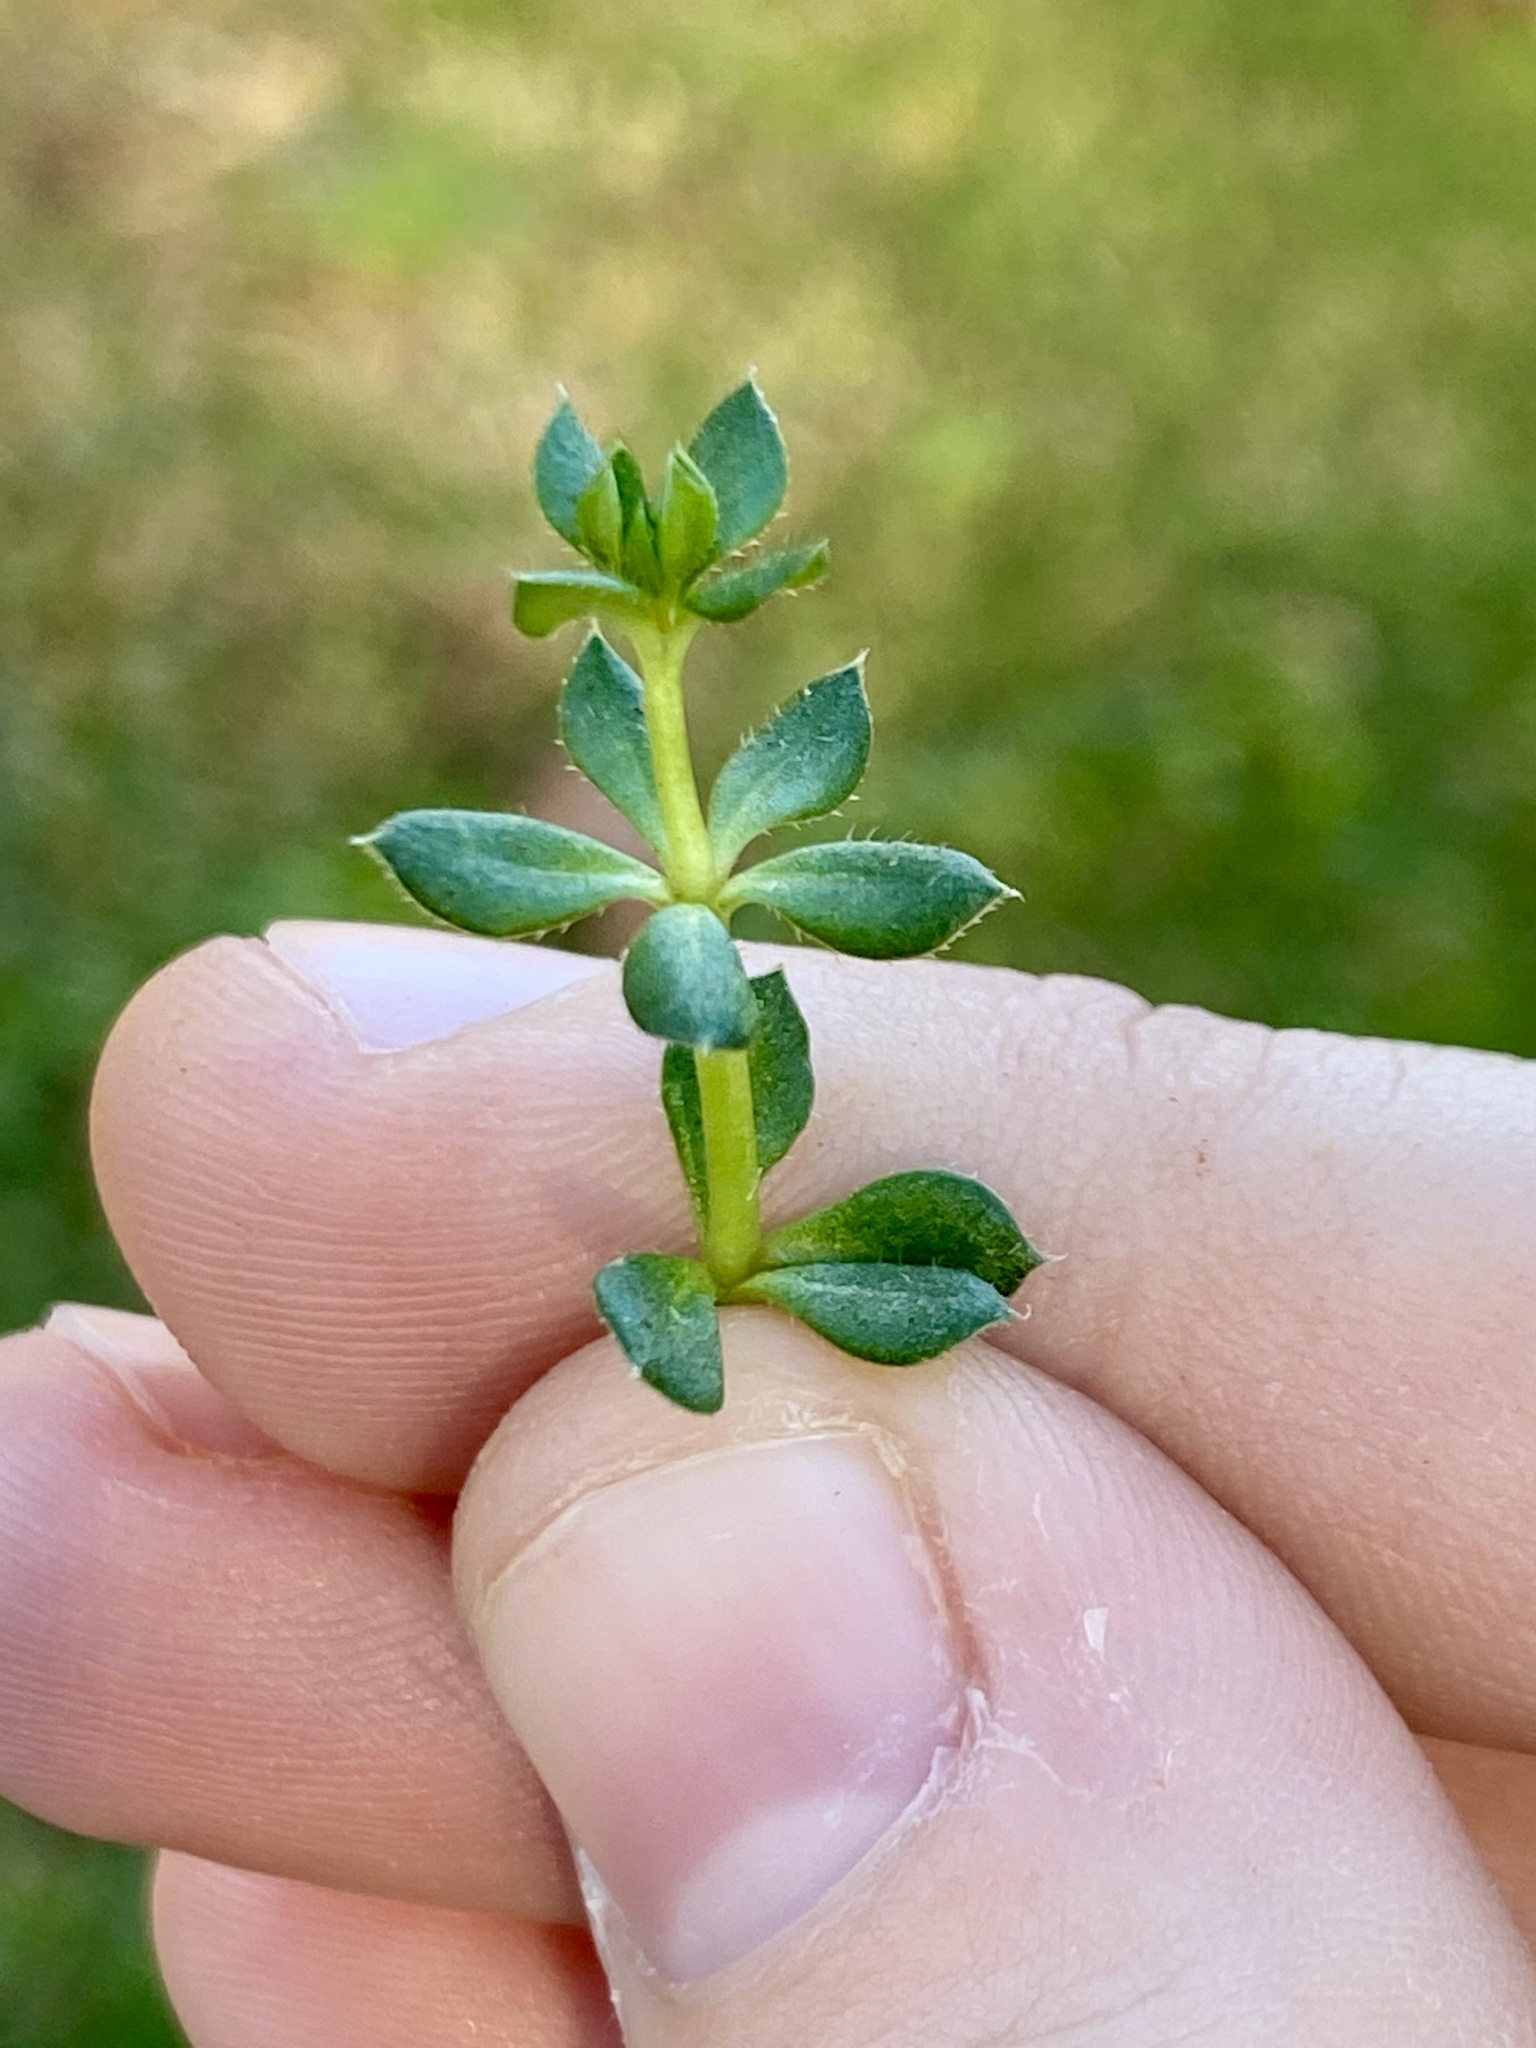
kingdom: Plantae
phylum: Tracheophyta
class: Magnoliopsida
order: Gentianales
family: Rubiaceae
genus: Sherardia
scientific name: Sherardia arvensis
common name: Field madder
